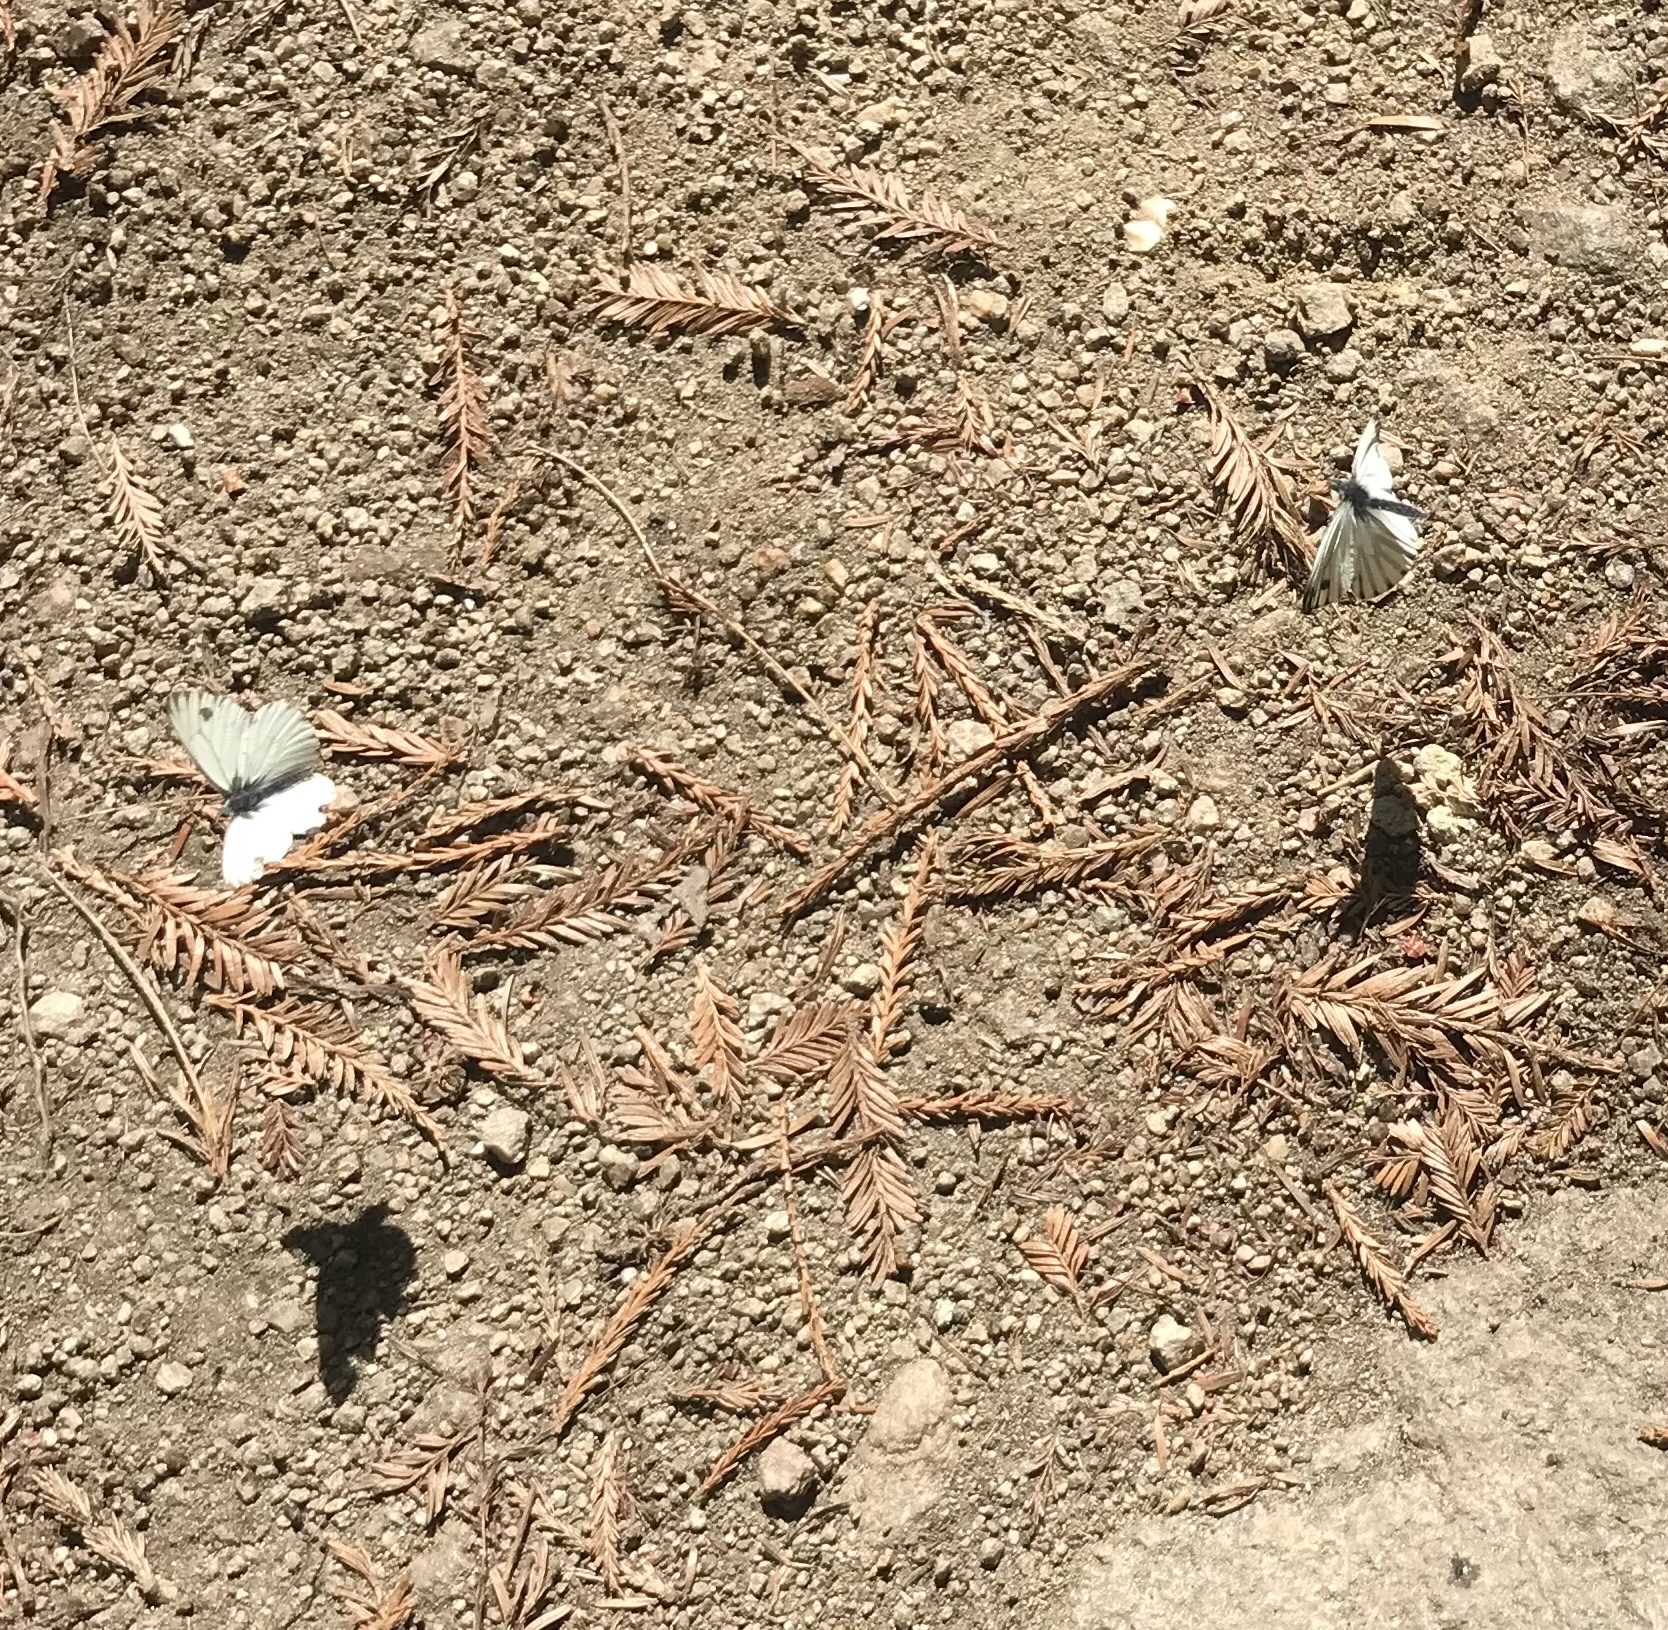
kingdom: Animalia
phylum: Arthropoda
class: Insecta
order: Lepidoptera
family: Pieridae
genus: Pieris
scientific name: Pieris marginalis
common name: Margined white
